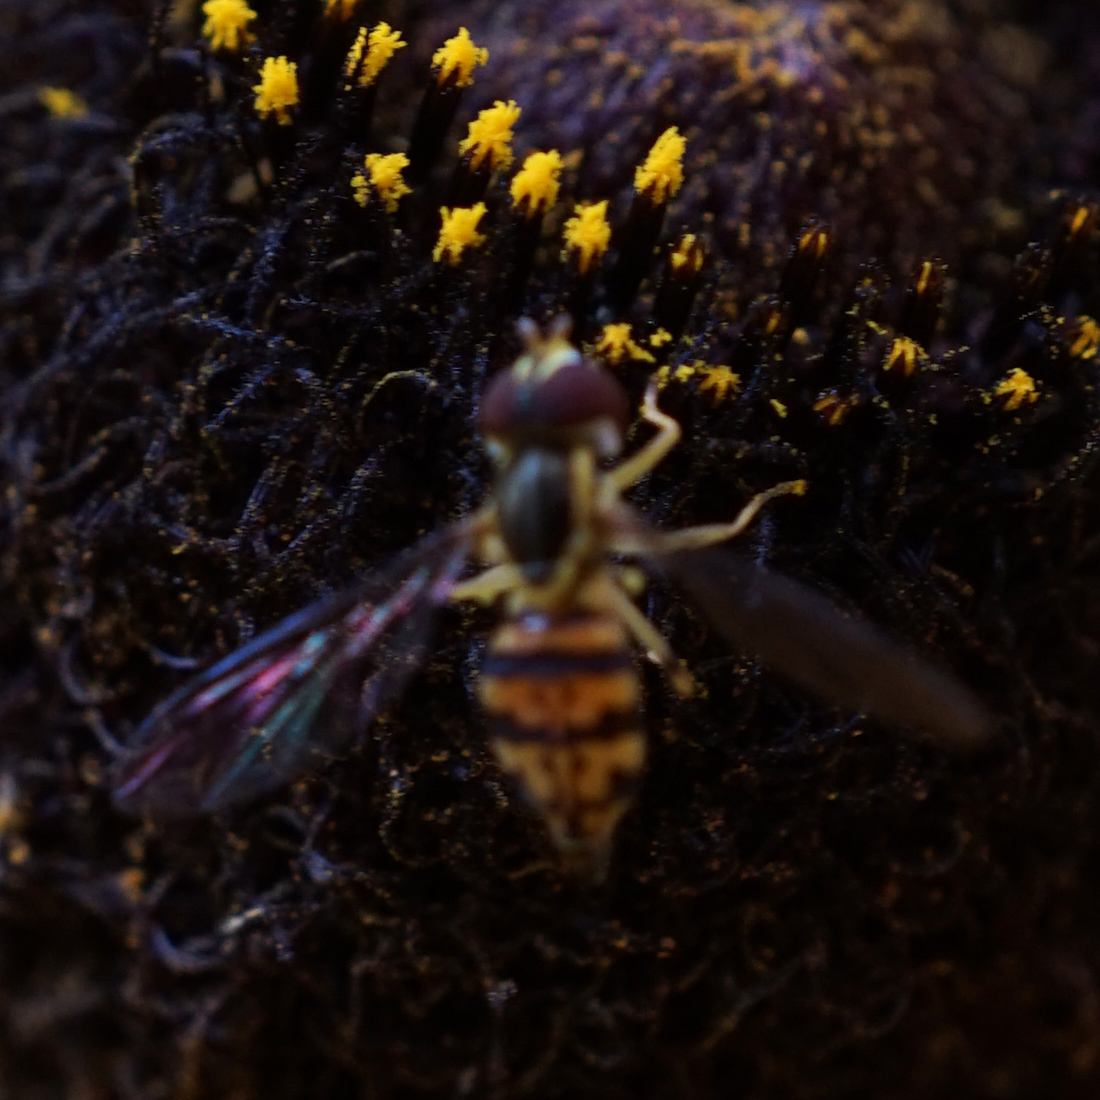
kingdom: Animalia
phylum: Arthropoda
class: Insecta
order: Diptera
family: Syrphidae
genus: Toxomerus
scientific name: Toxomerus geminatus
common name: Eastern calligrapher
